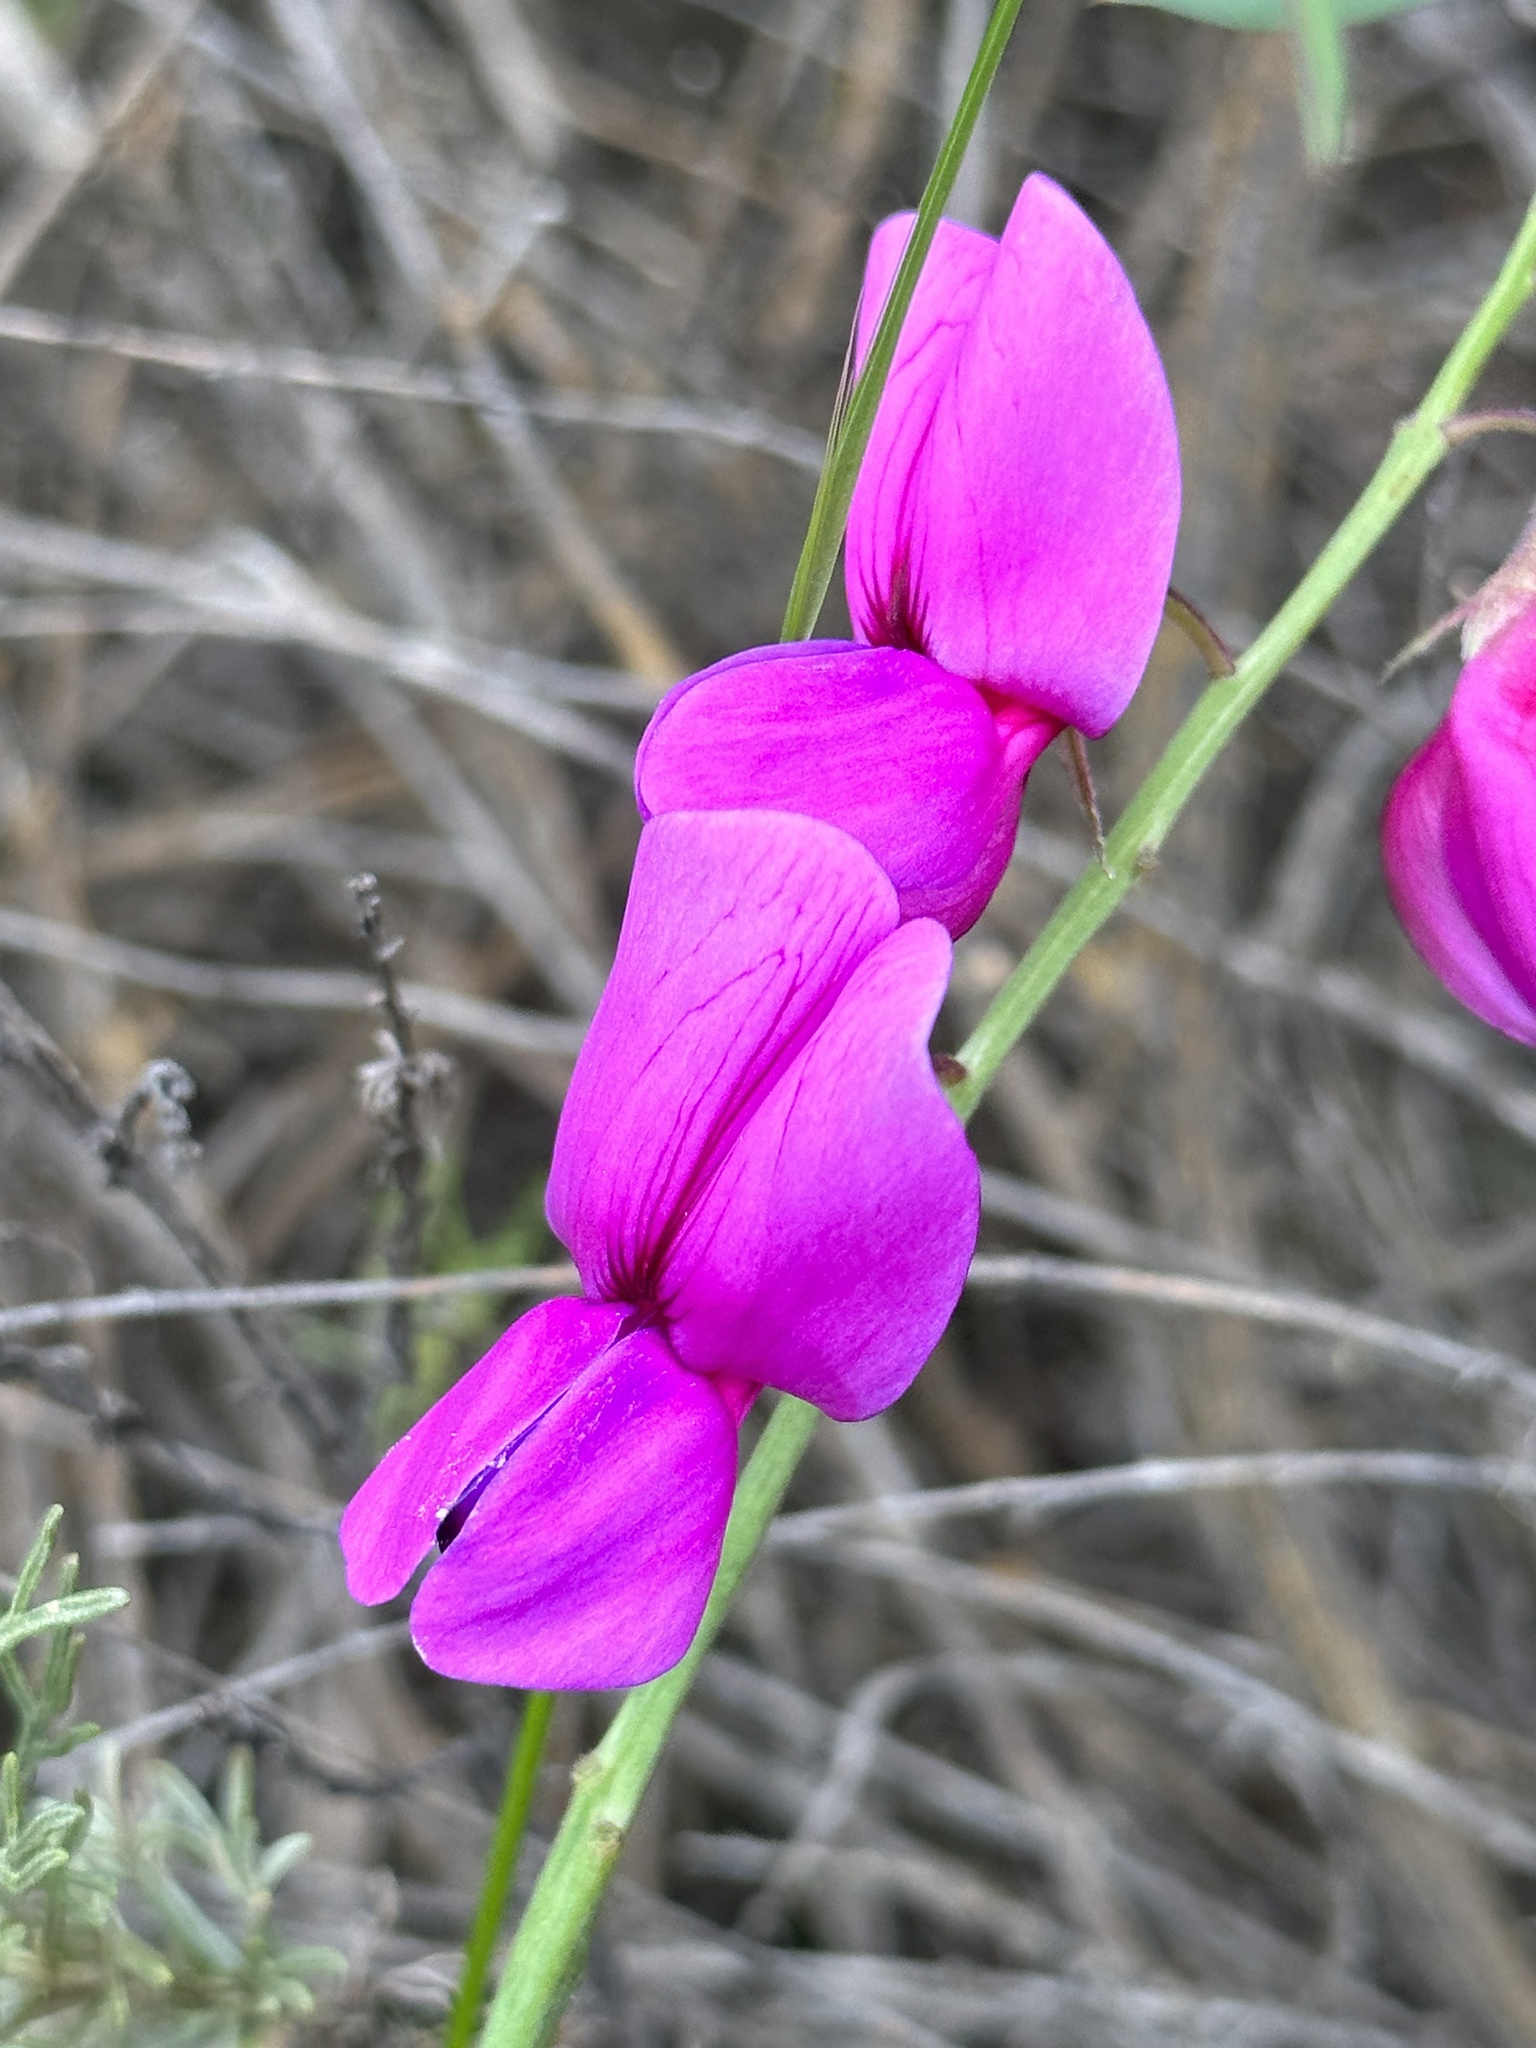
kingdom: Plantae
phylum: Tracheophyta
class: Magnoliopsida
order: Fabales
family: Fabaceae
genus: Lathyrus
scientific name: Lathyrus vestitus
